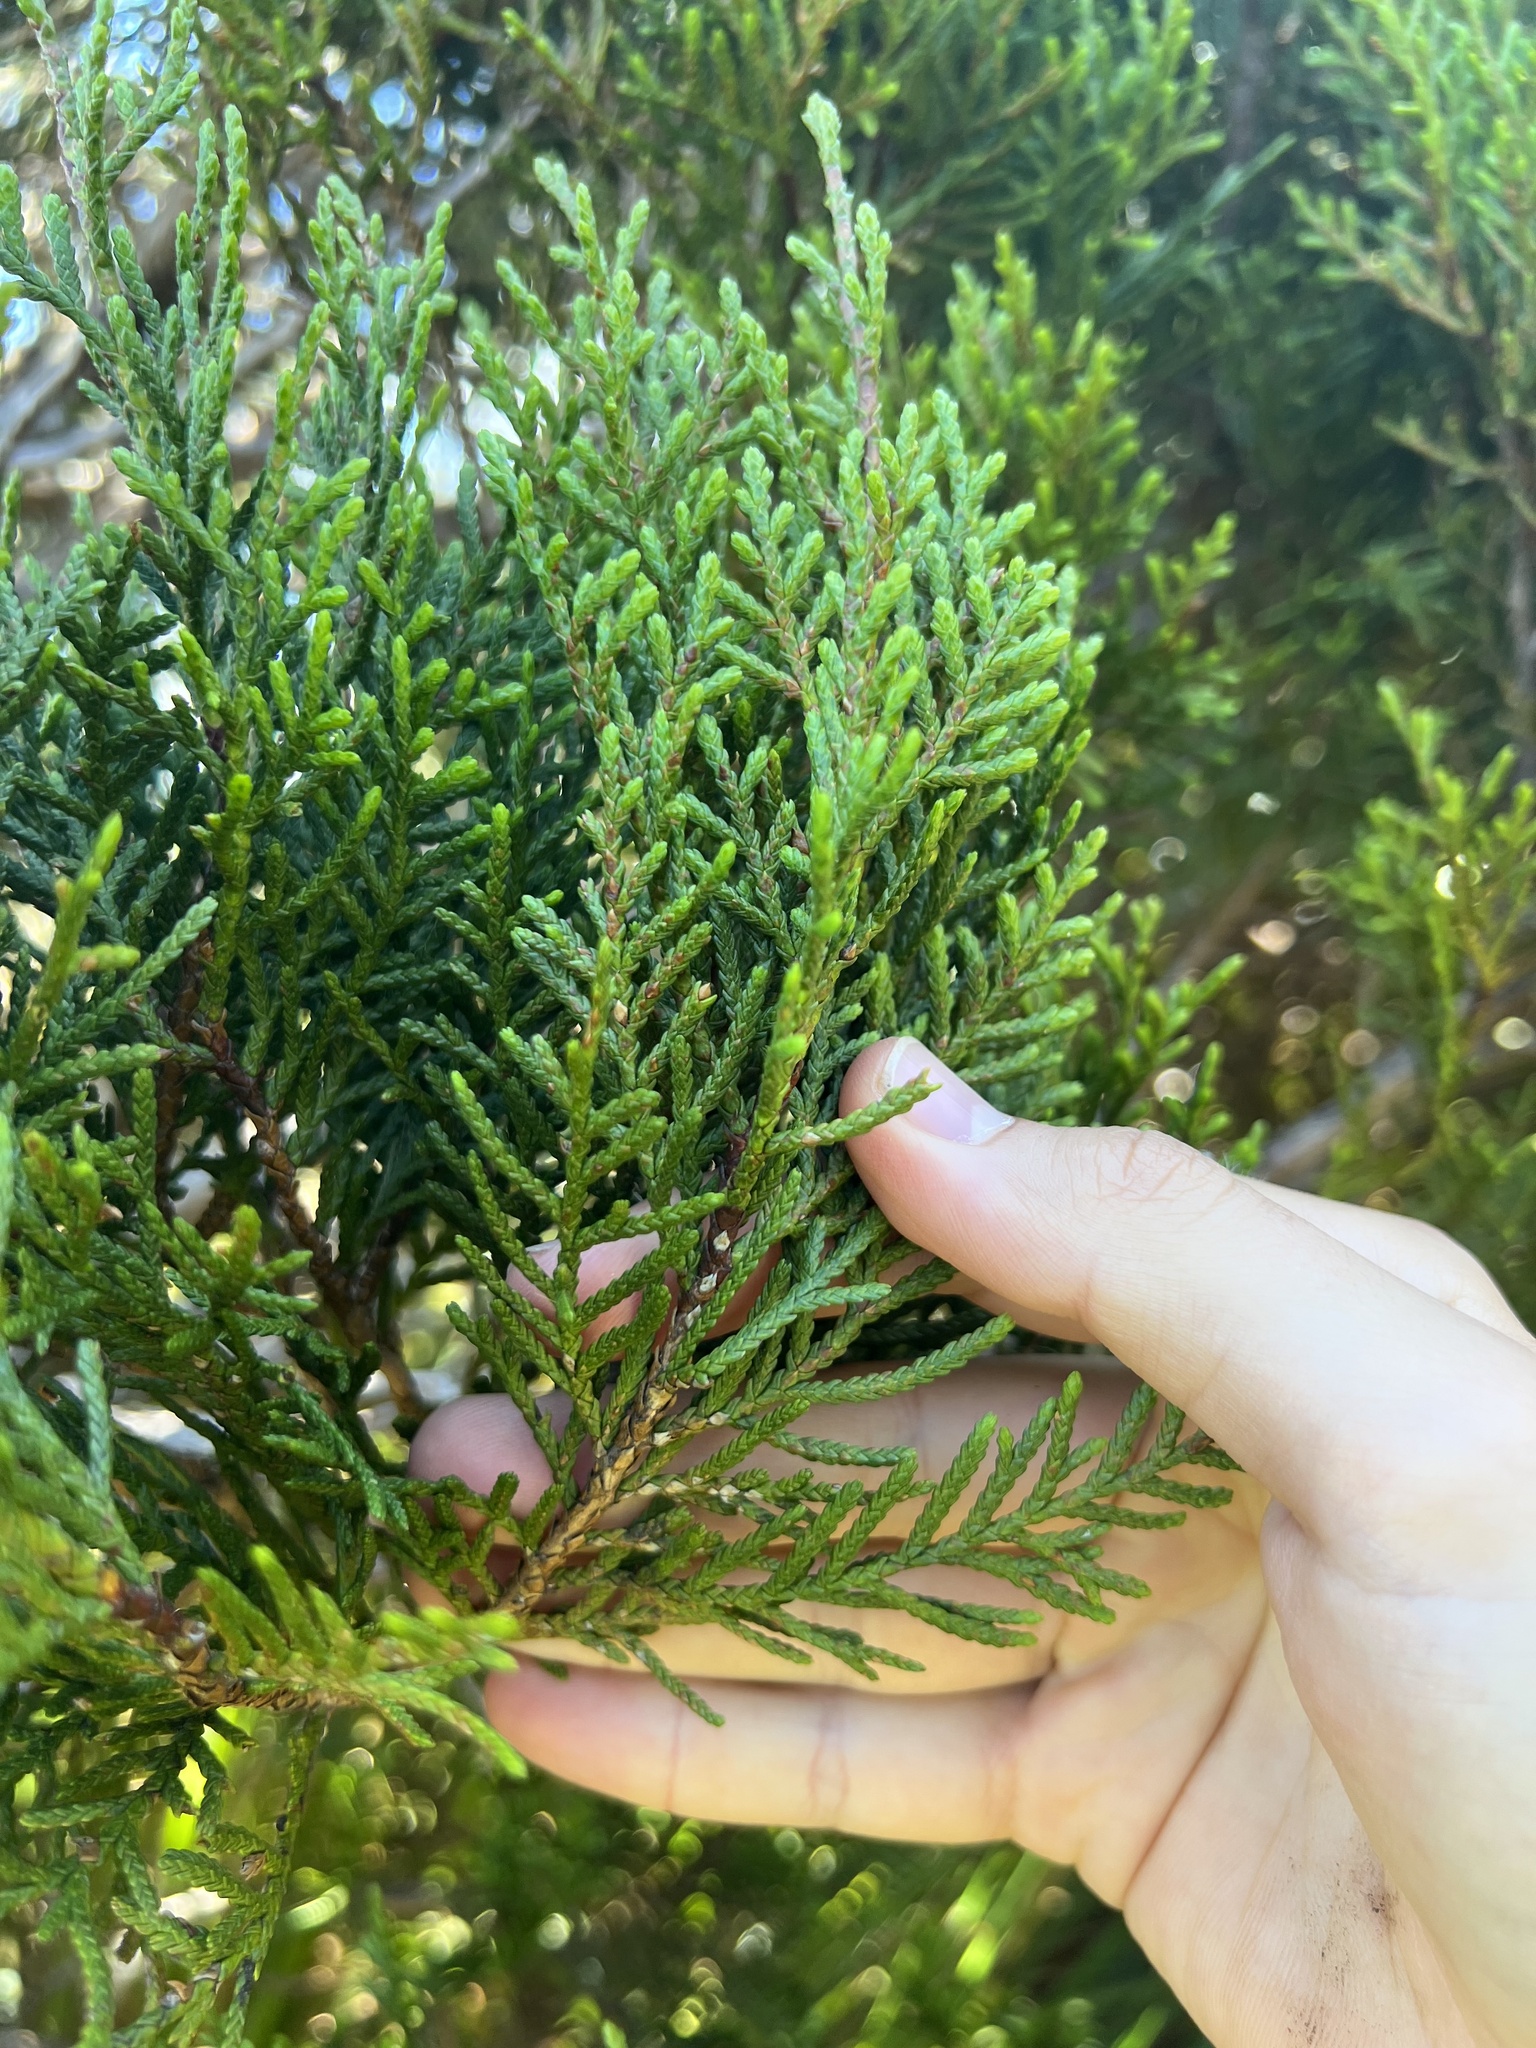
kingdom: Plantae
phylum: Tracheophyta
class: Pinopsida
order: Pinales
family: Cupressaceae
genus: Libocedrus
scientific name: Libocedrus bidwillii
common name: Cedar
